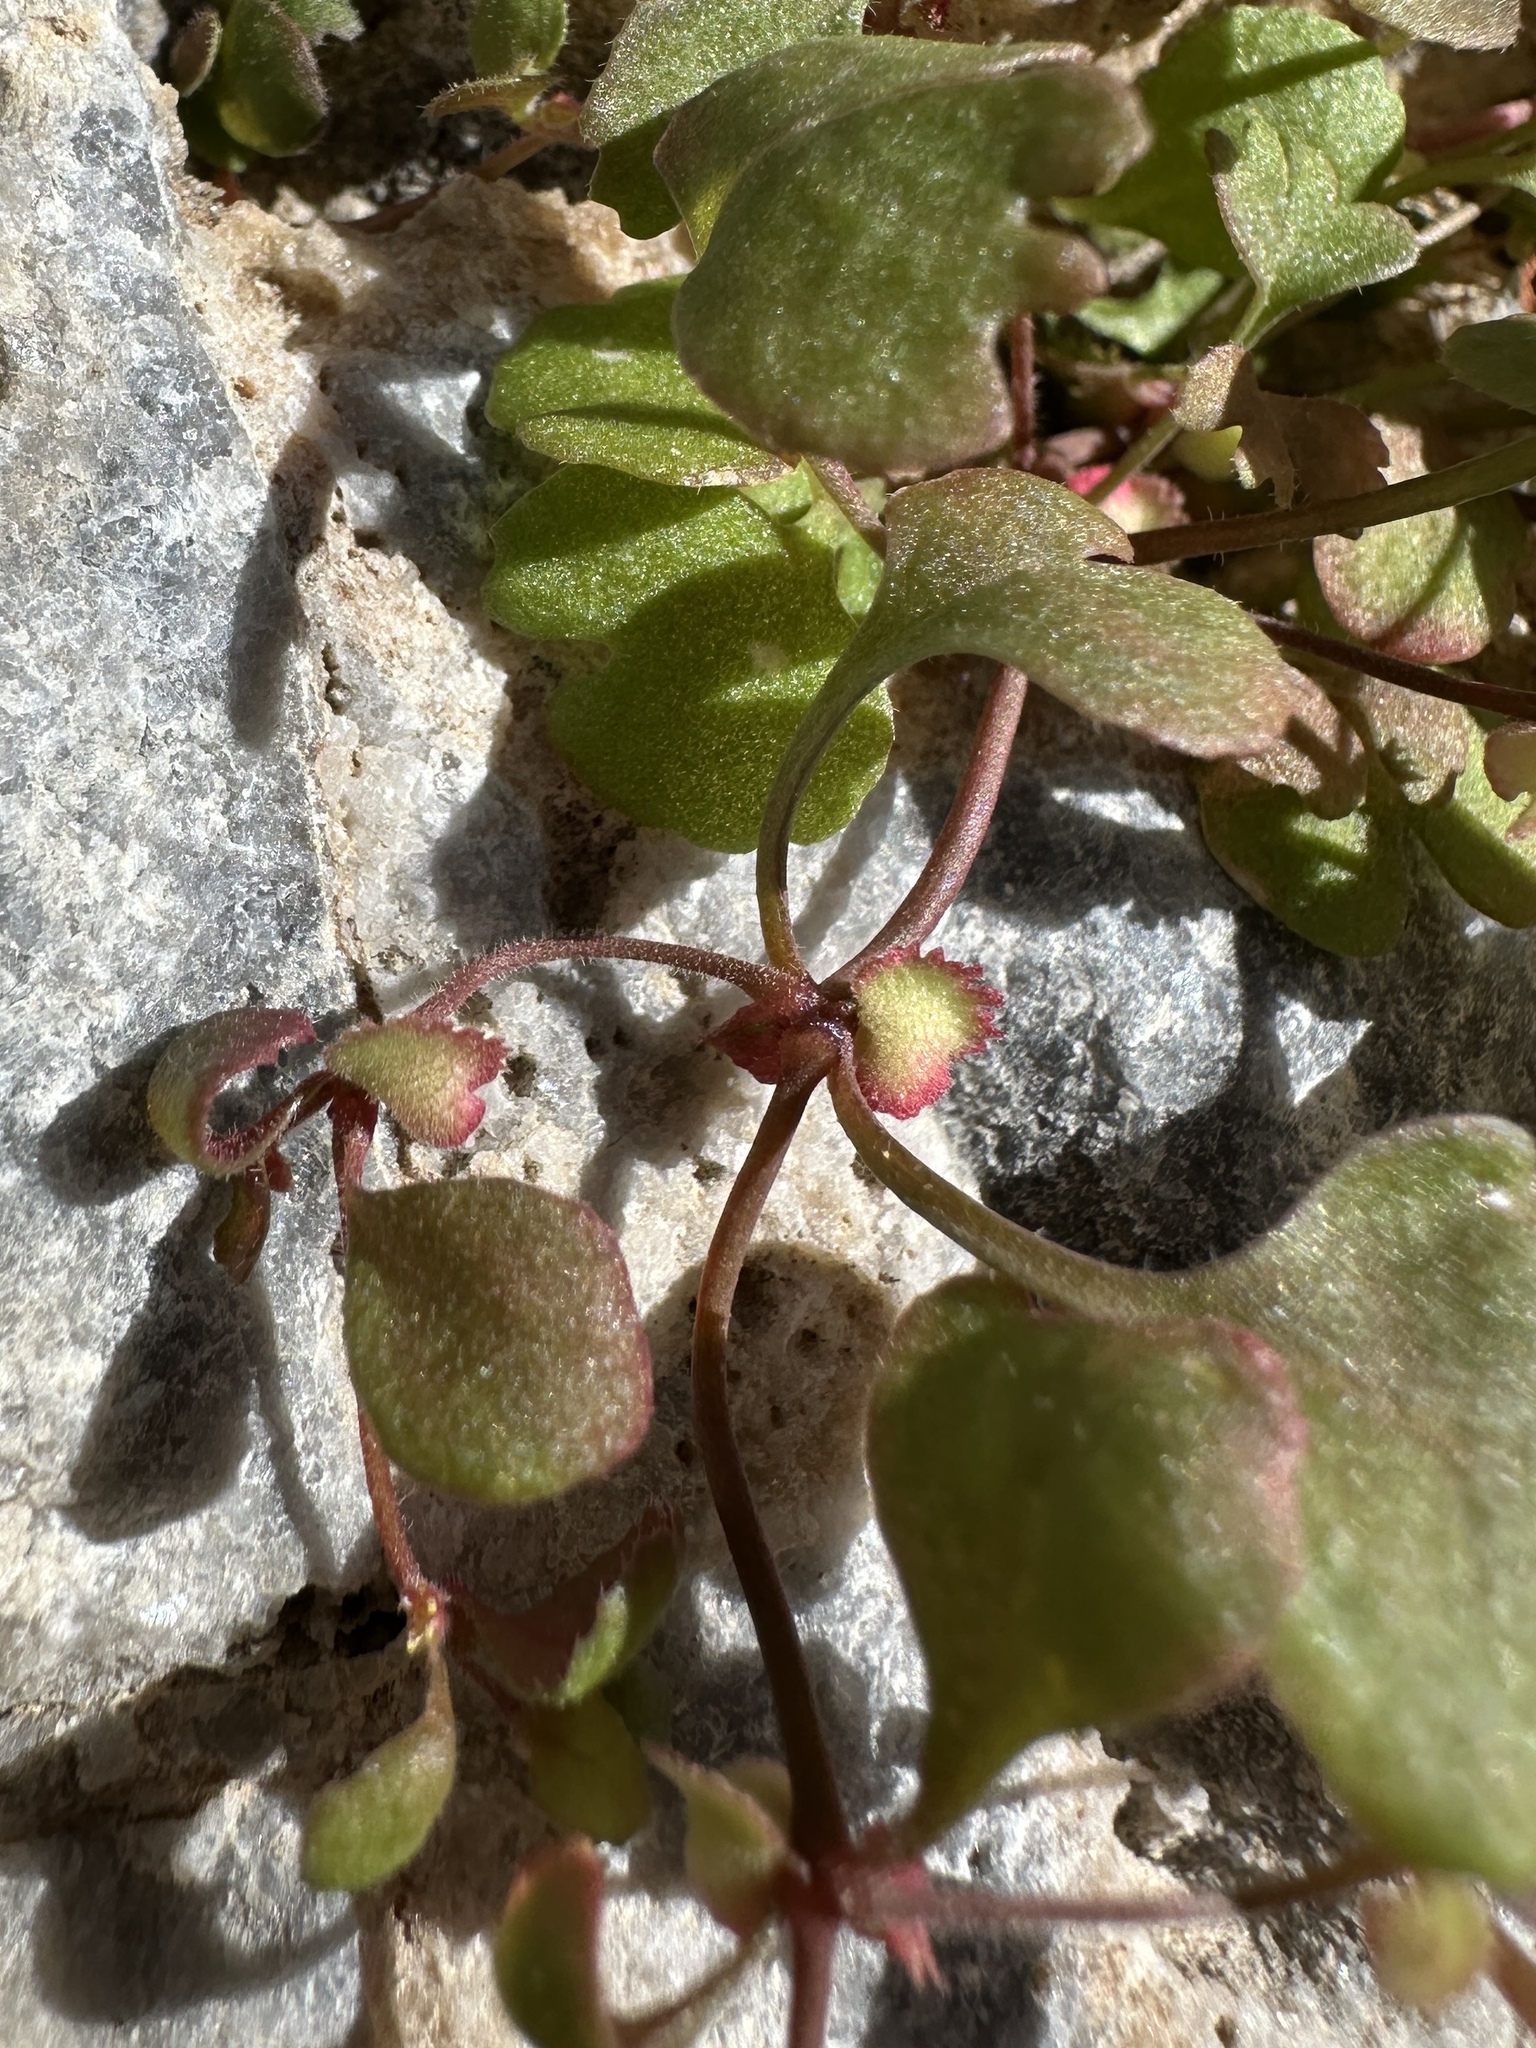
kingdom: Plantae
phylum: Tracheophyta
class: Magnoliopsida
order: Caryophyllales
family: Polygonaceae
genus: Pterostegia
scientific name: Pterostegia drymarioides
